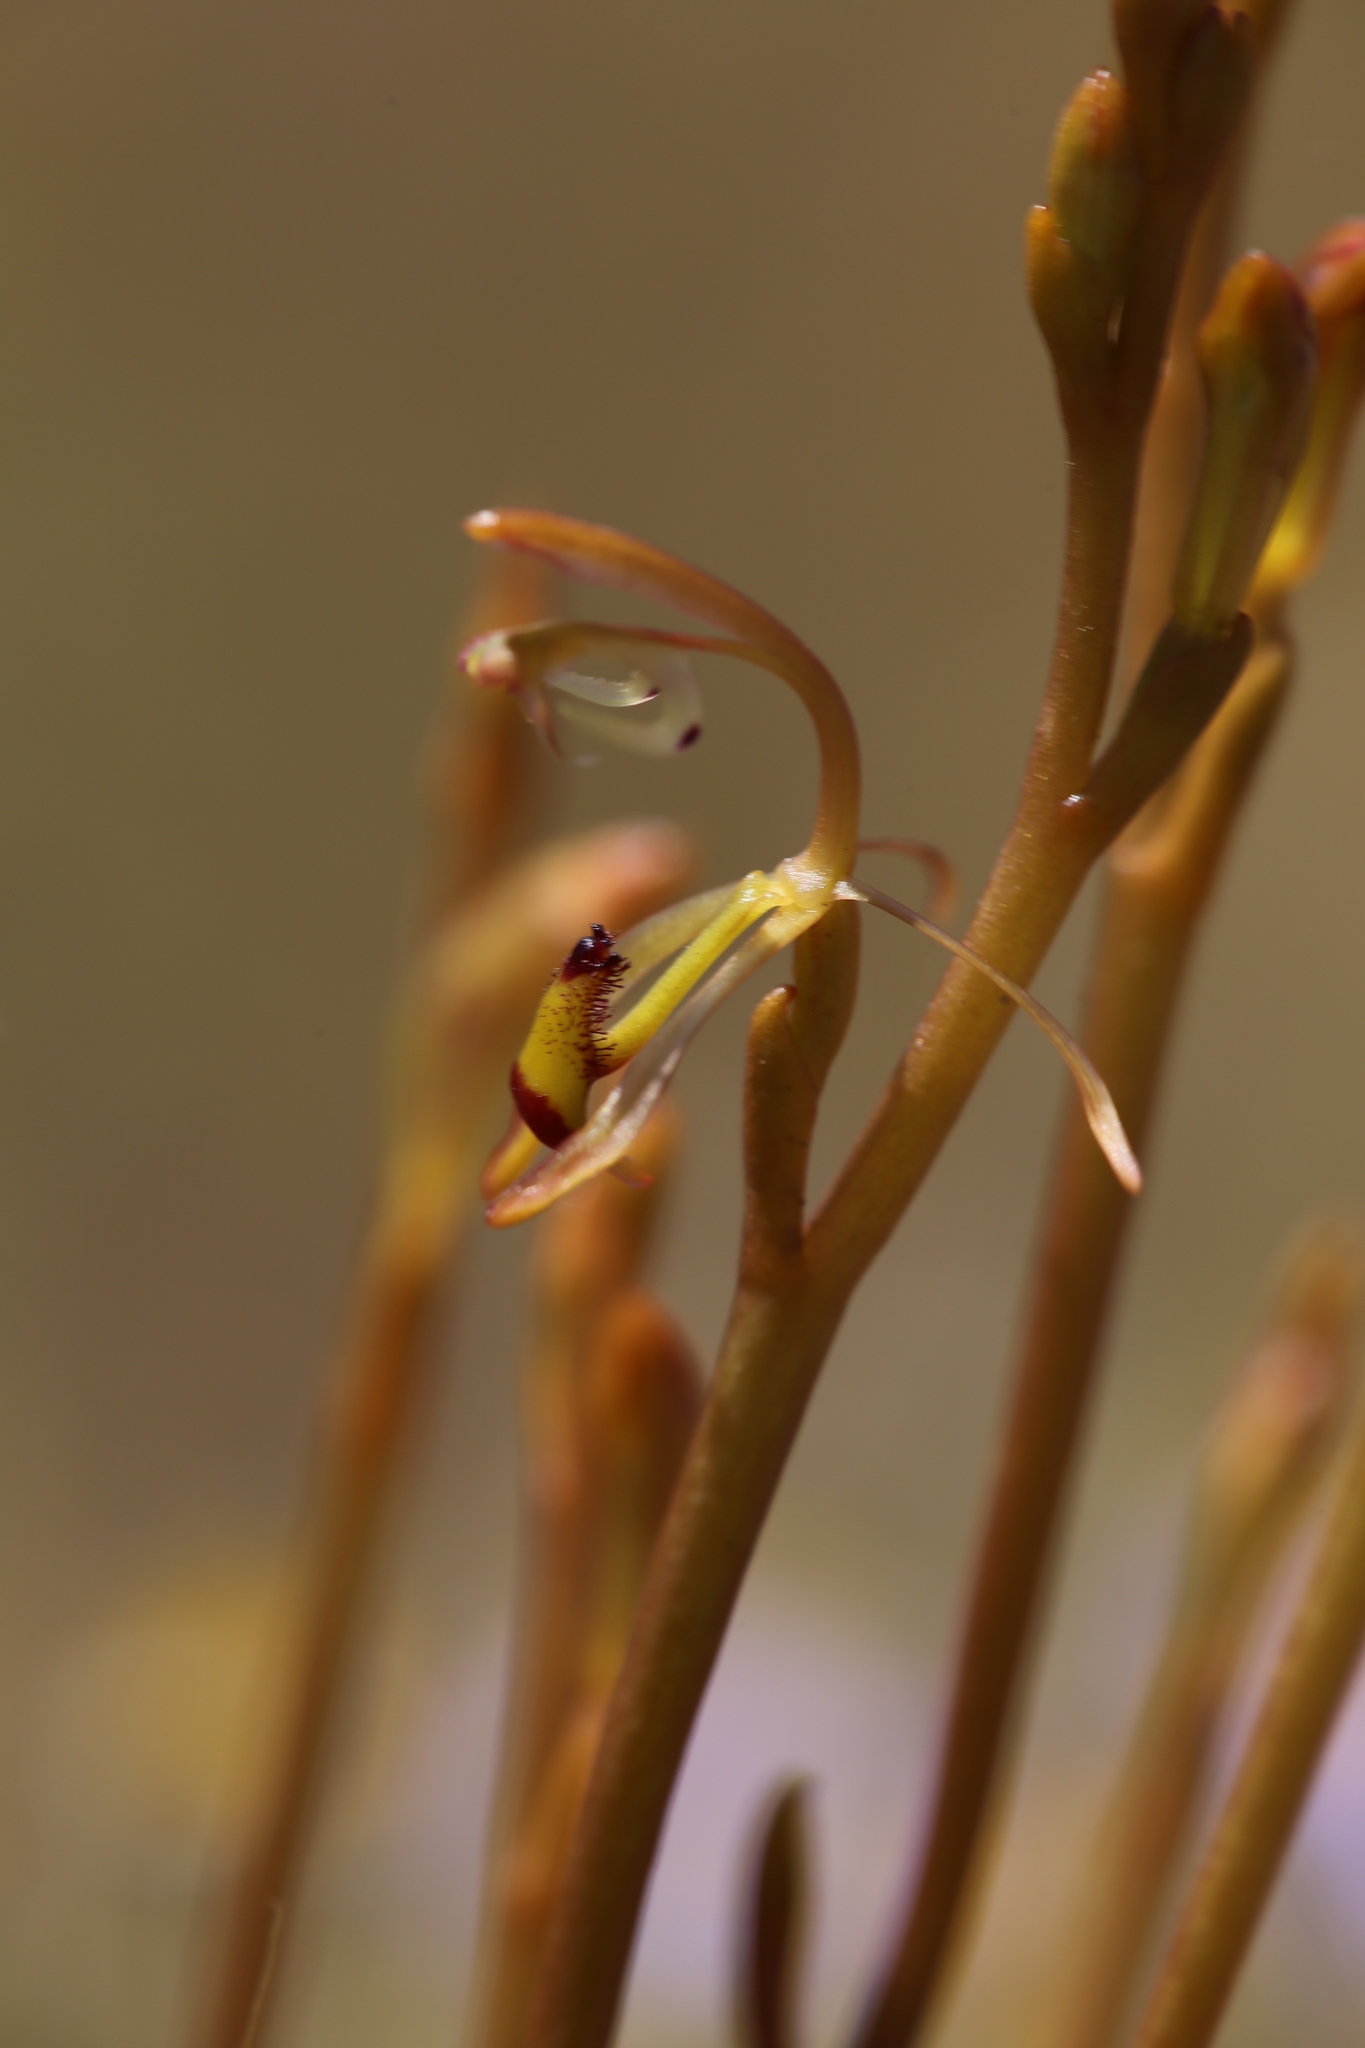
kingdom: Plantae
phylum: Tracheophyta
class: Liliopsida
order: Asparagales
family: Orchidaceae
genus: Spiculaea
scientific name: Spiculaea ciliata
